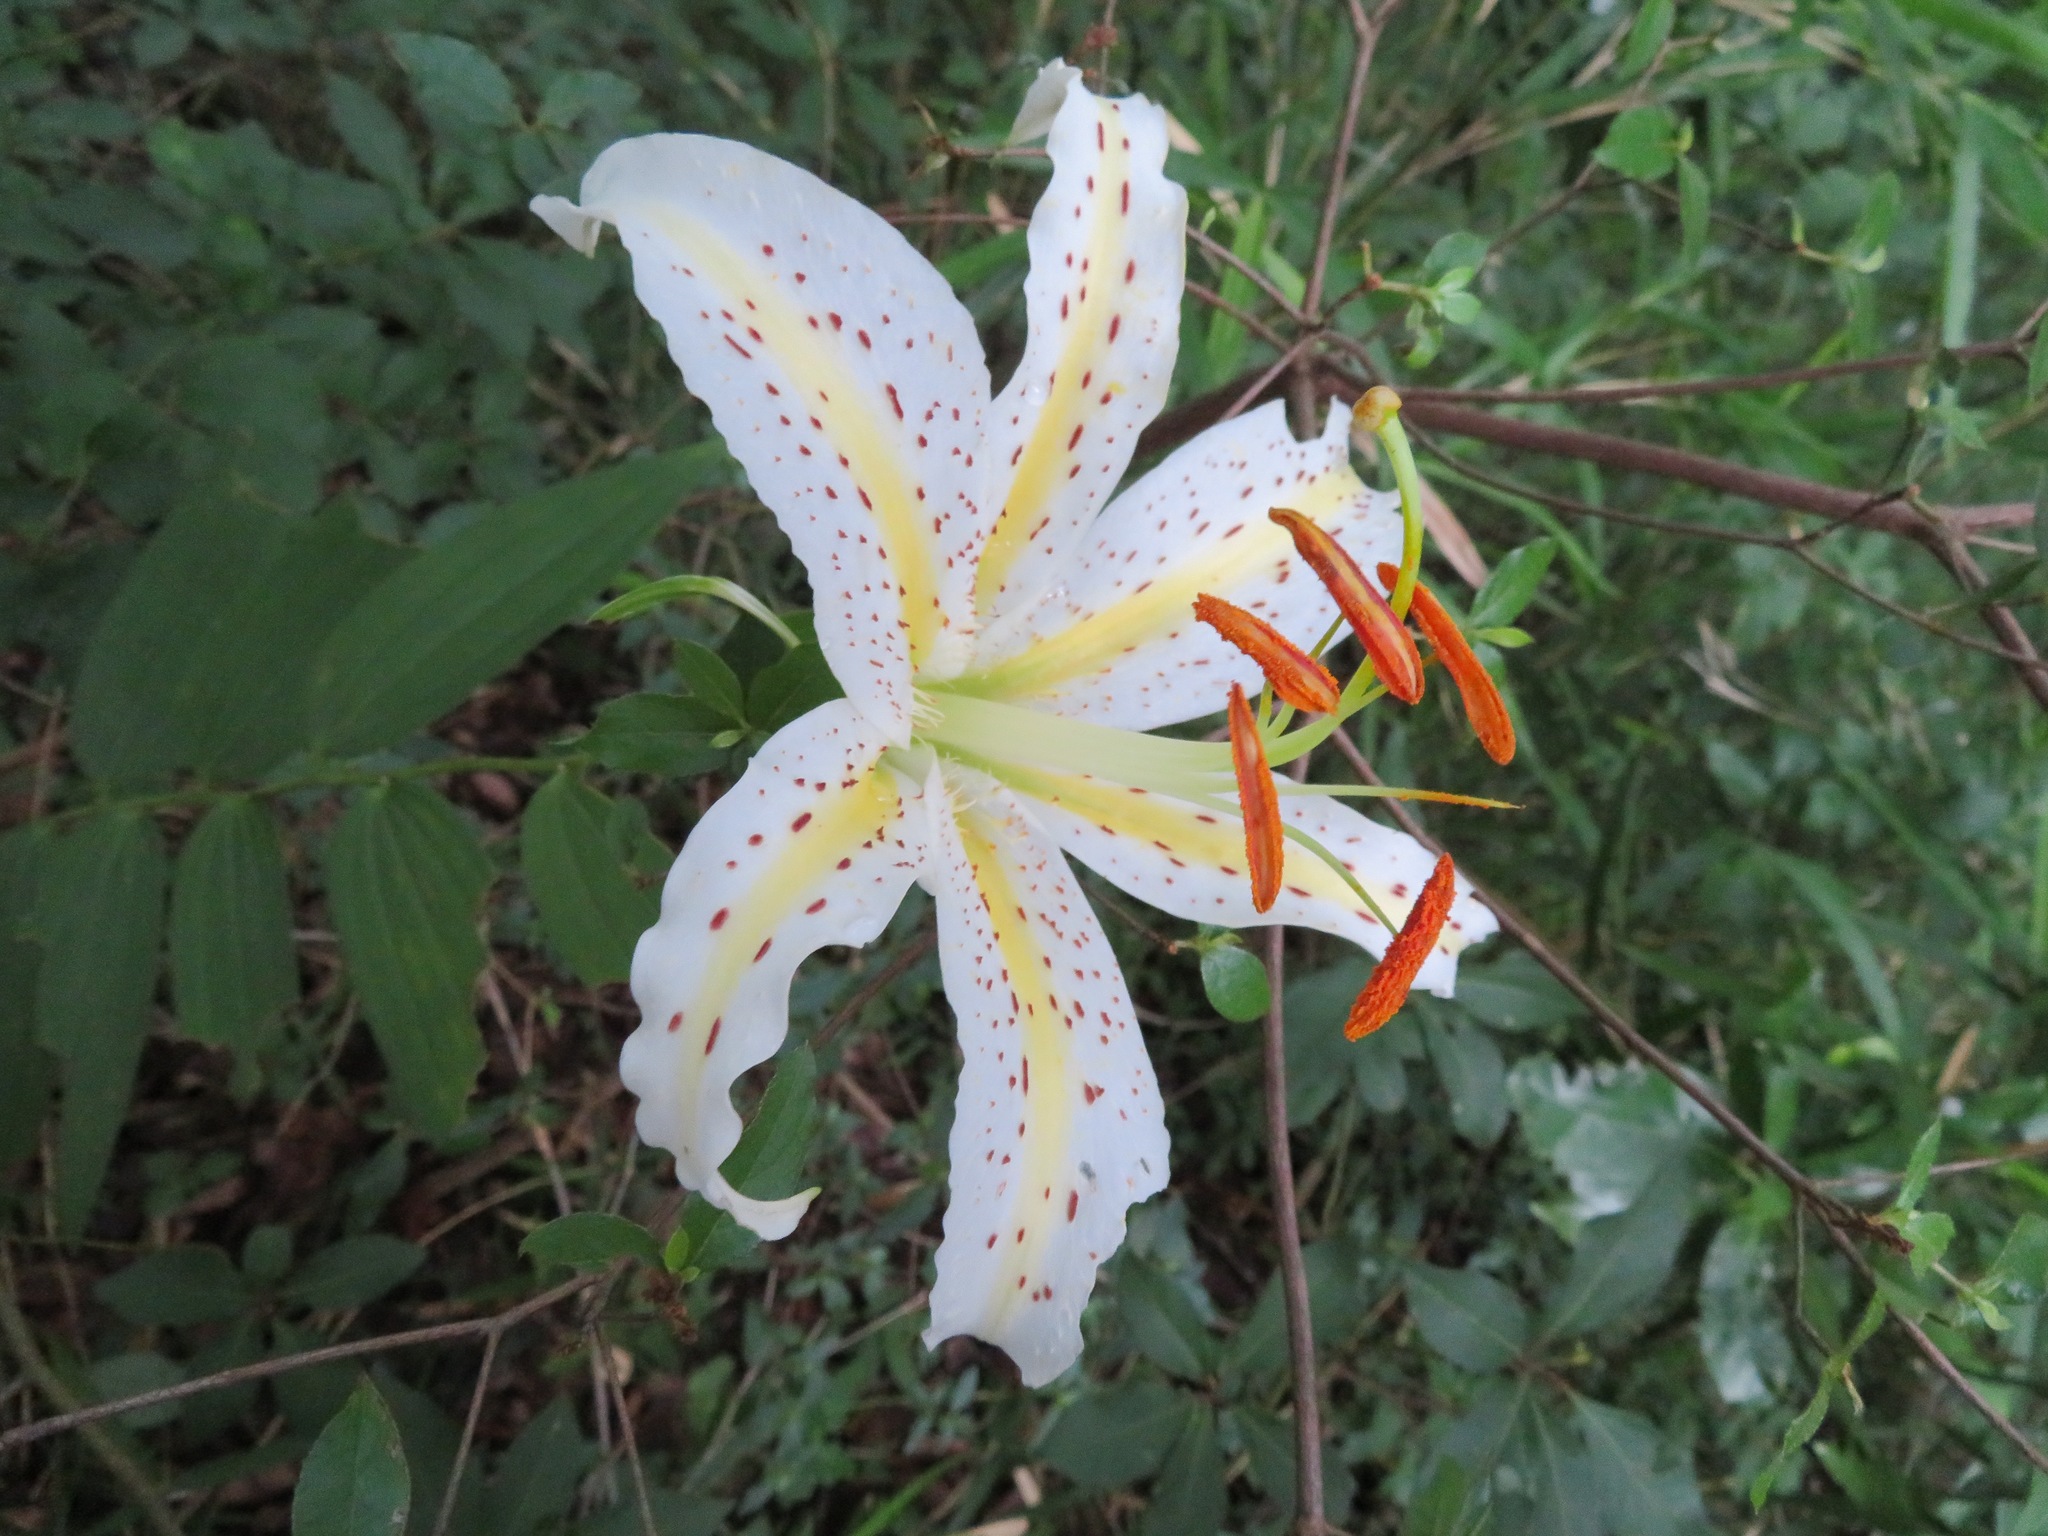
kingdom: Plantae
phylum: Tracheophyta
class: Liliopsida
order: Liliales
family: Liliaceae
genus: Lilium
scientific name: Lilium auratum
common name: Golden-ray lily
